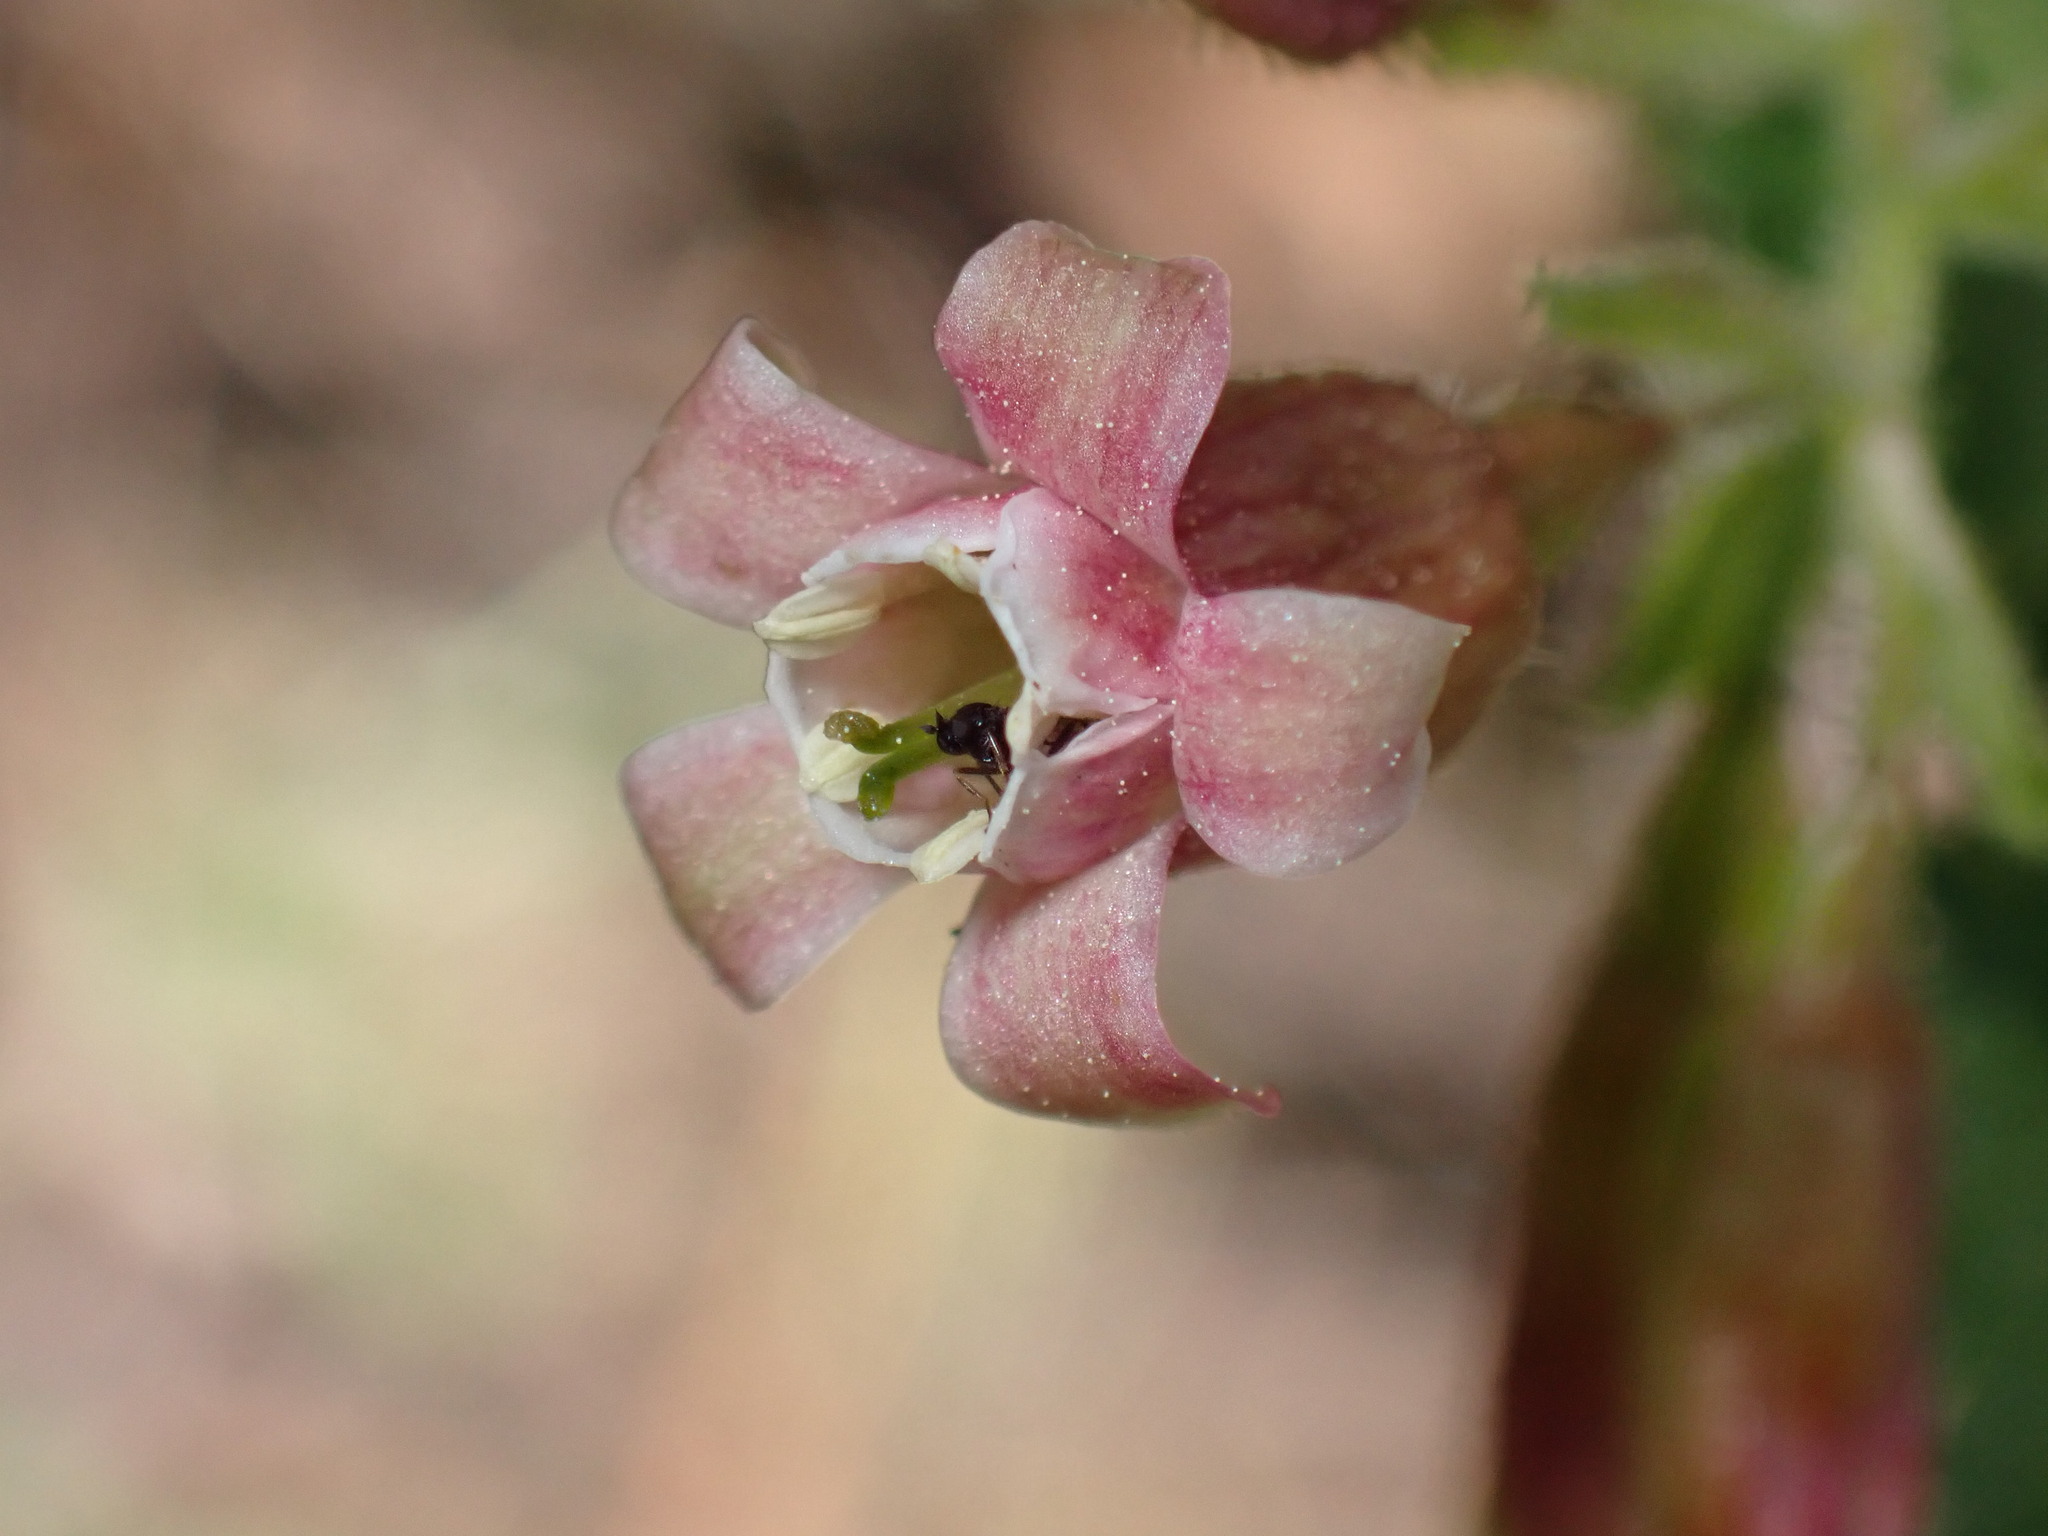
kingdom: Plantae
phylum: Tracheophyta
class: Magnoliopsida
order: Saxifragales
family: Grossulariaceae
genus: Ribes
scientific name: Ribes viscosissimum
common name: Sticky currant
